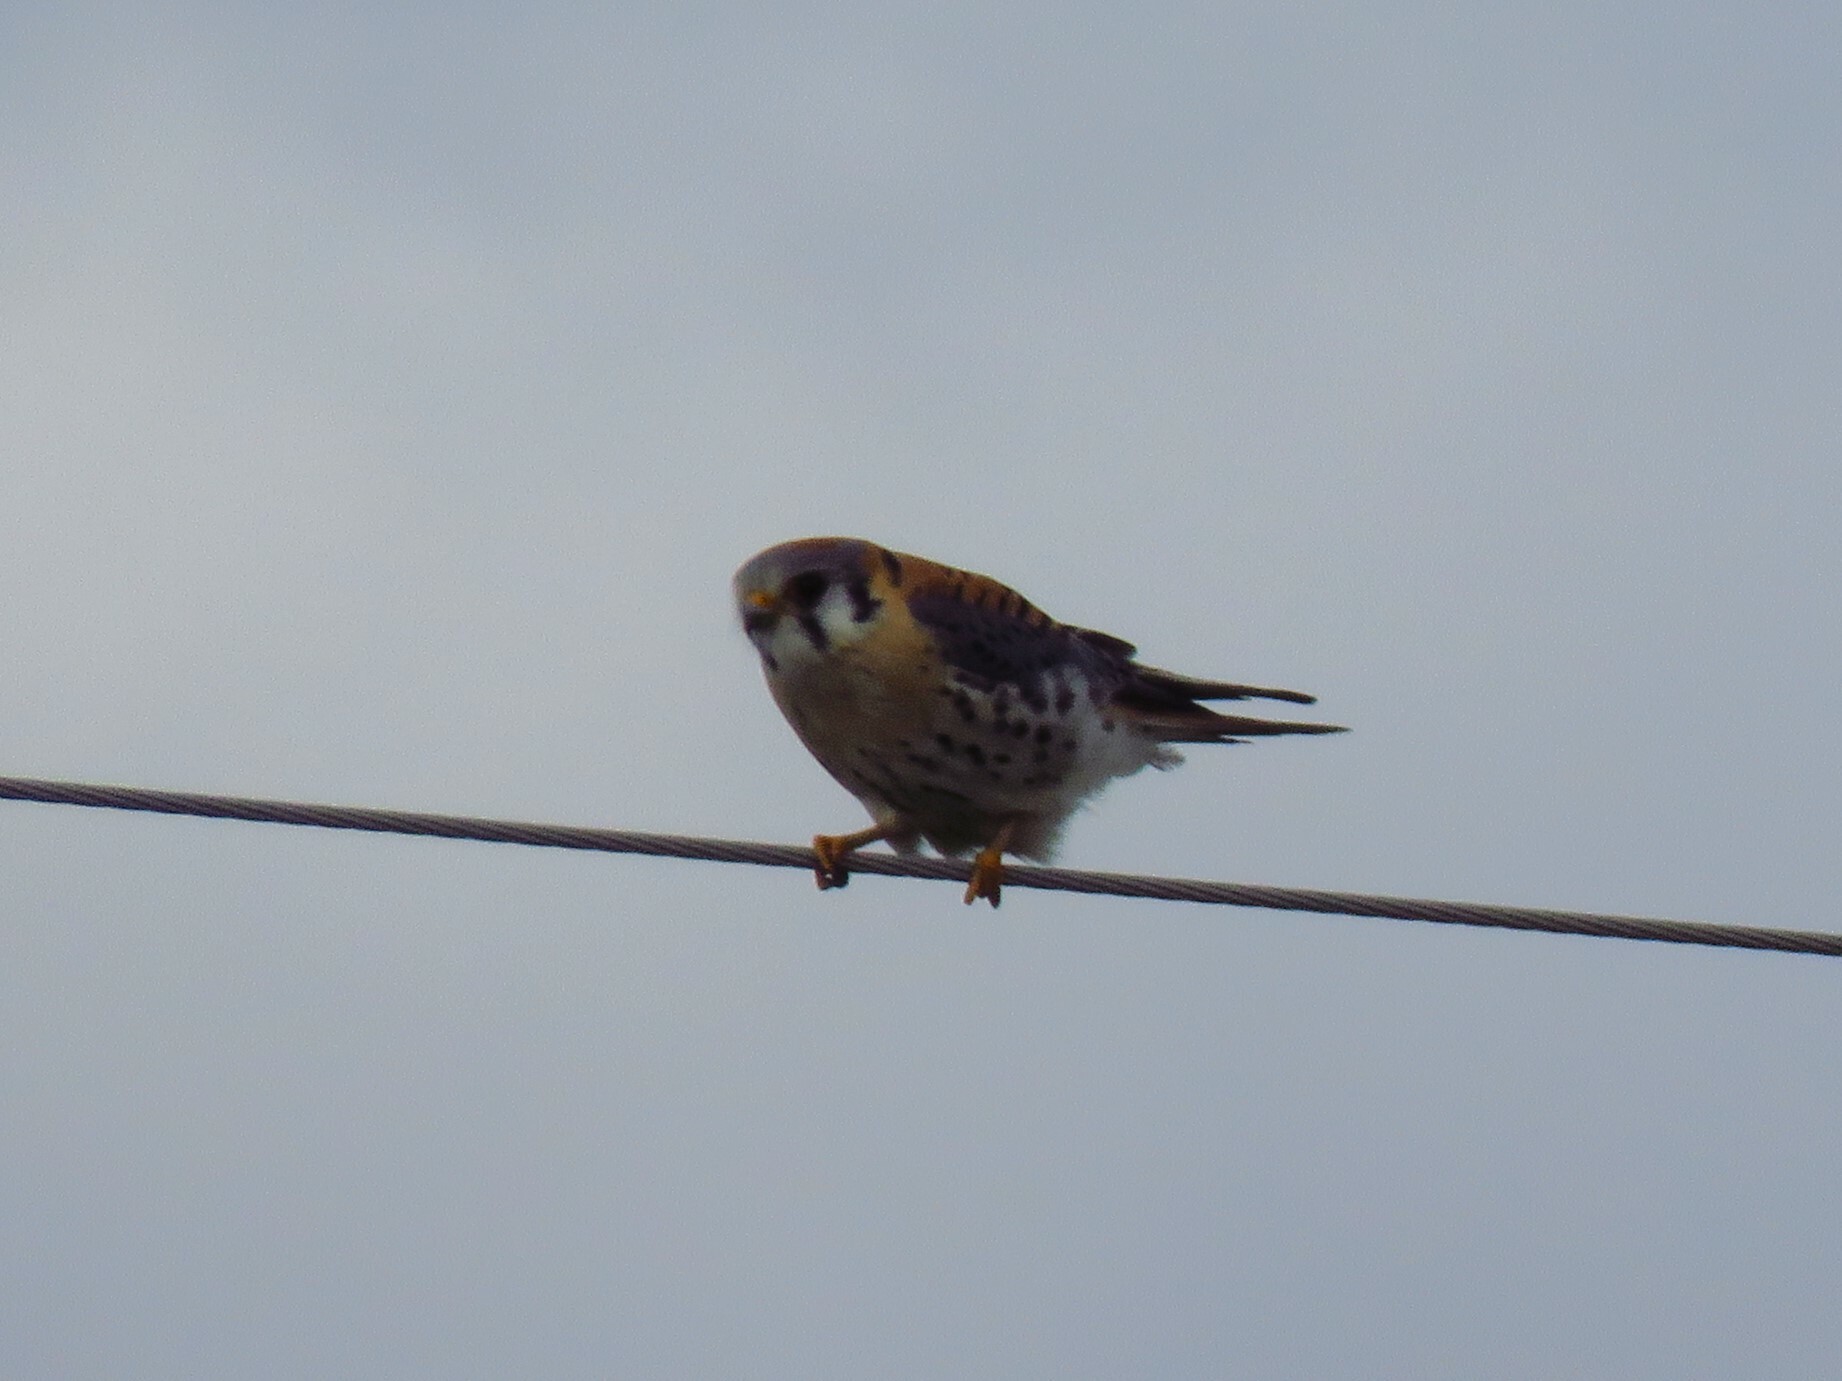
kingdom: Animalia
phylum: Chordata
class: Aves
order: Falconiformes
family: Falconidae
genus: Falco
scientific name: Falco sparverius
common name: American kestrel
